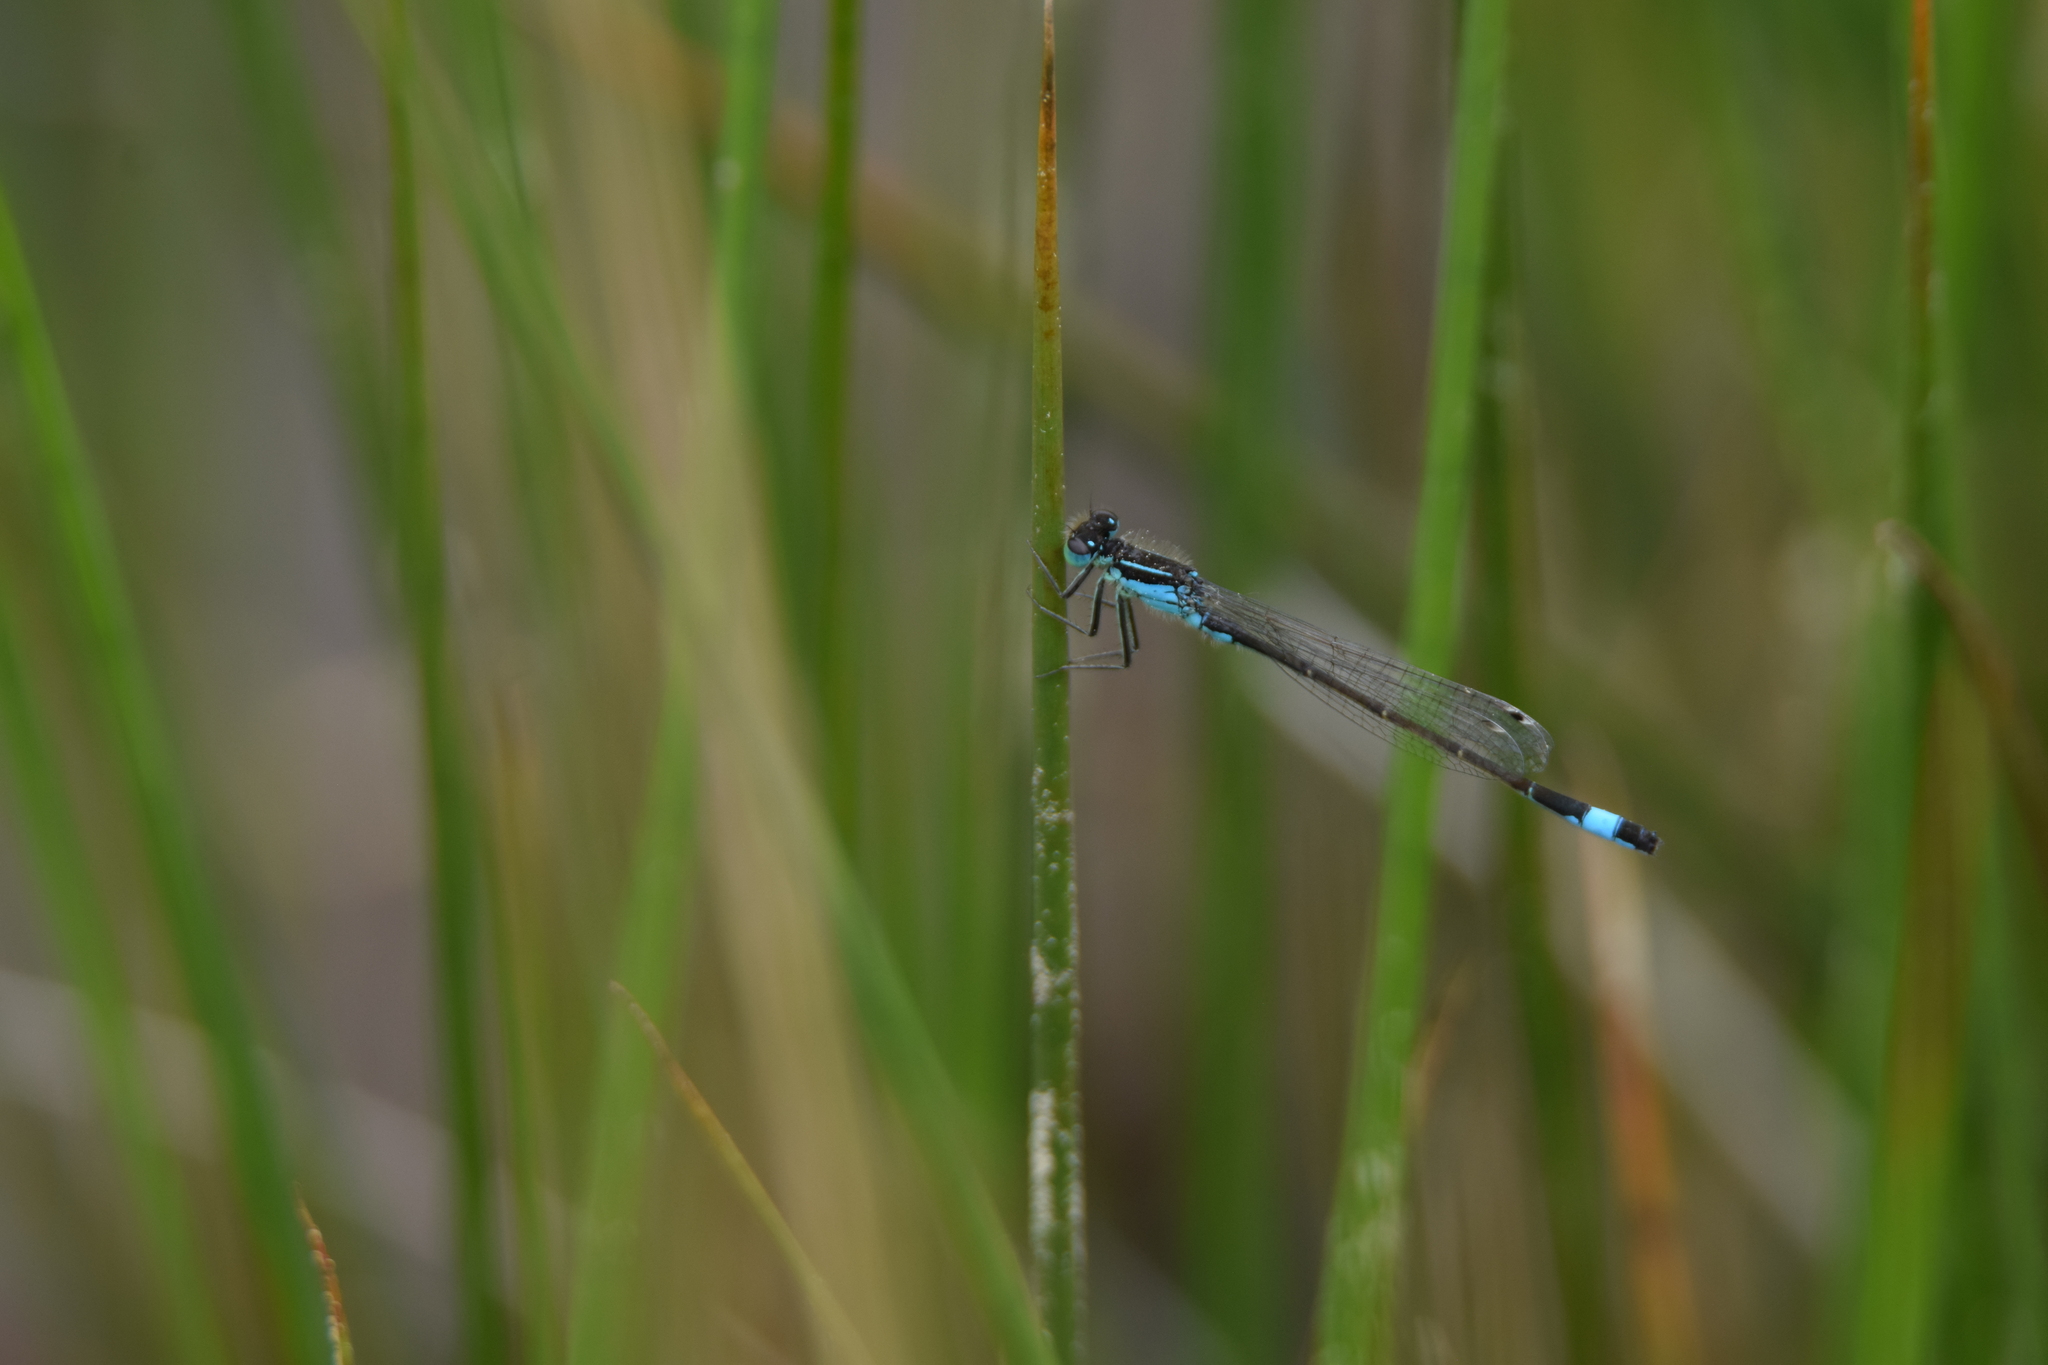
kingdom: Animalia
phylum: Arthropoda
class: Insecta
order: Odonata
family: Coenagrionidae
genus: Ischnura
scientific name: Ischnura elegans
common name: Blue-tailed damselfly
